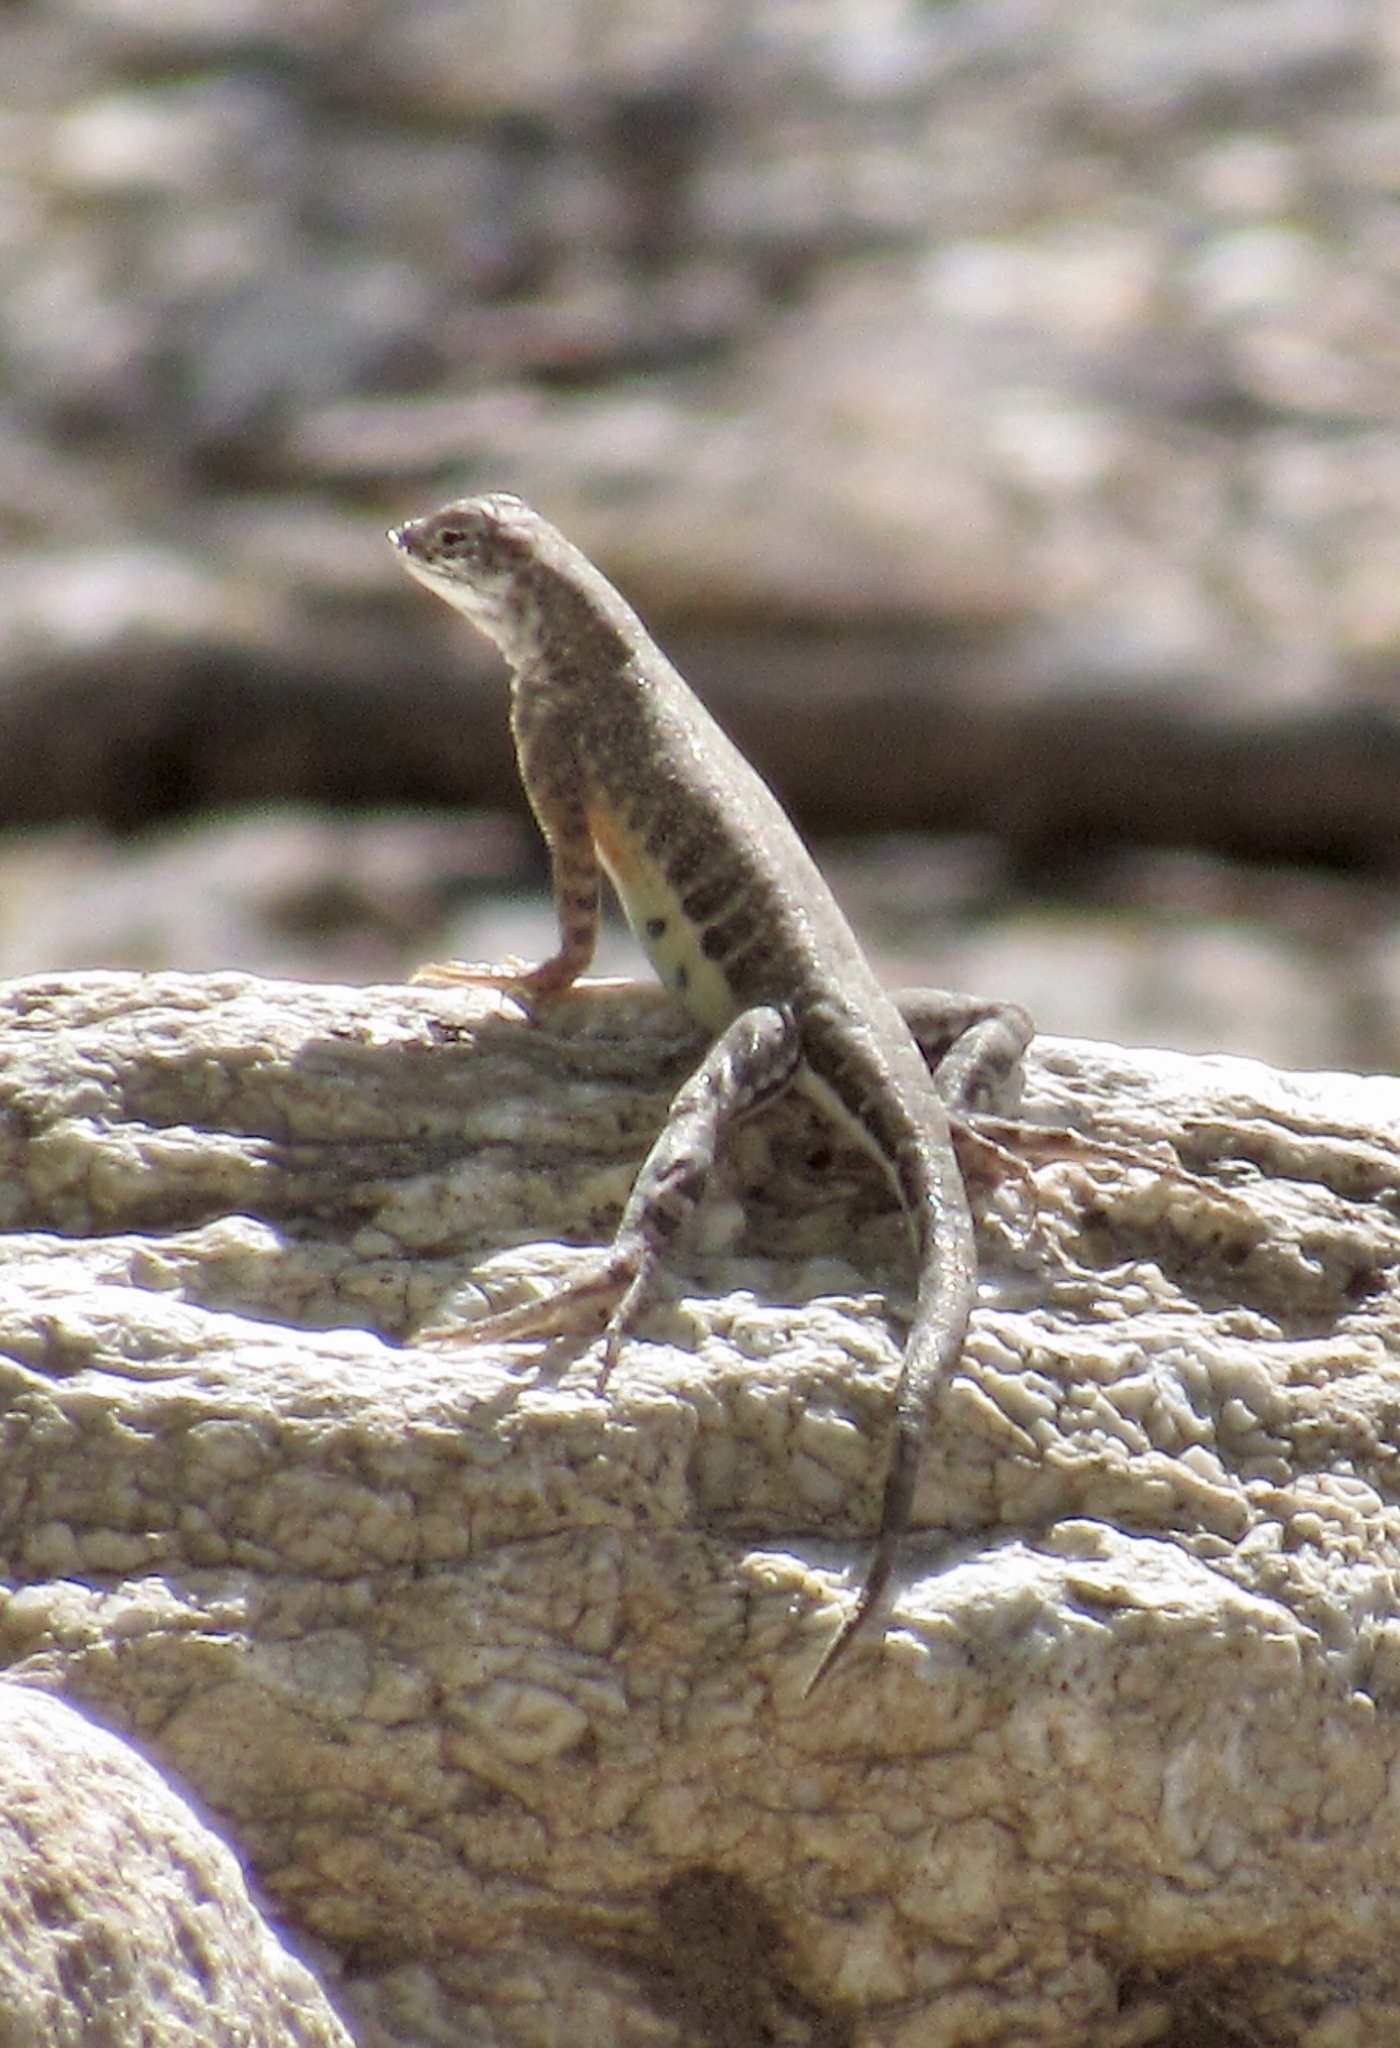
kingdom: Animalia
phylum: Chordata
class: Squamata
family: Phrynosomatidae
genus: Cophosaurus
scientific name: Cophosaurus texanus
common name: Greater earless lizard
